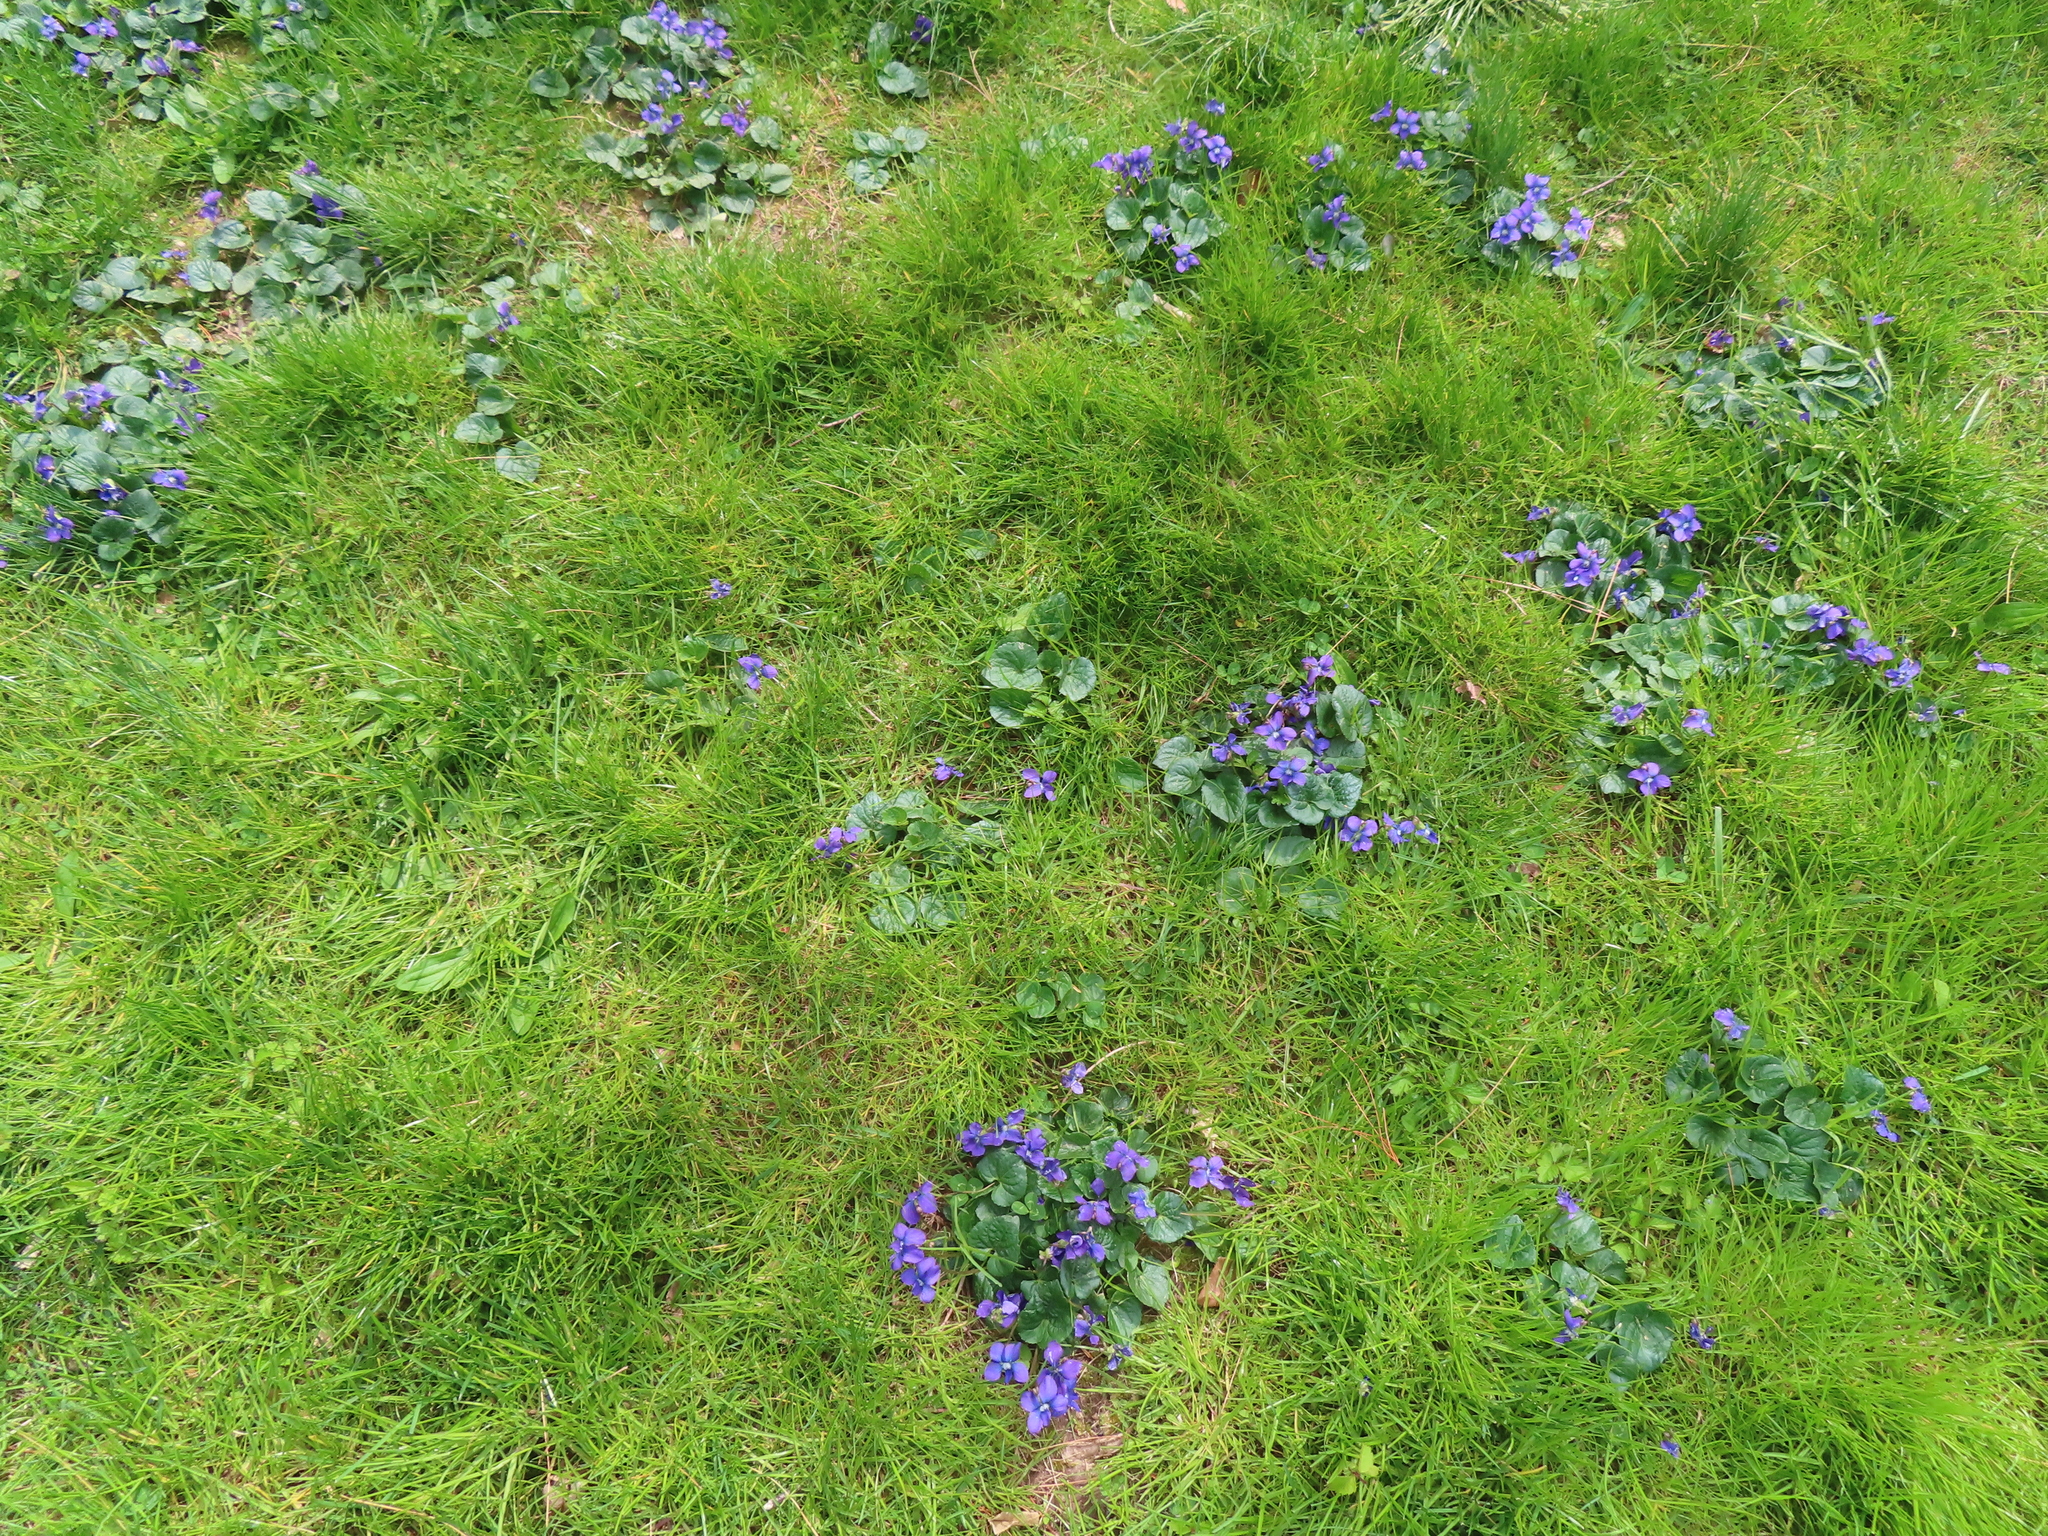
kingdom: Plantae
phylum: Tracheophyta
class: Magnoliopsida
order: Malpighiales
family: Violaceae
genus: Viola
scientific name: Viola sororia
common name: Dooryard violet
